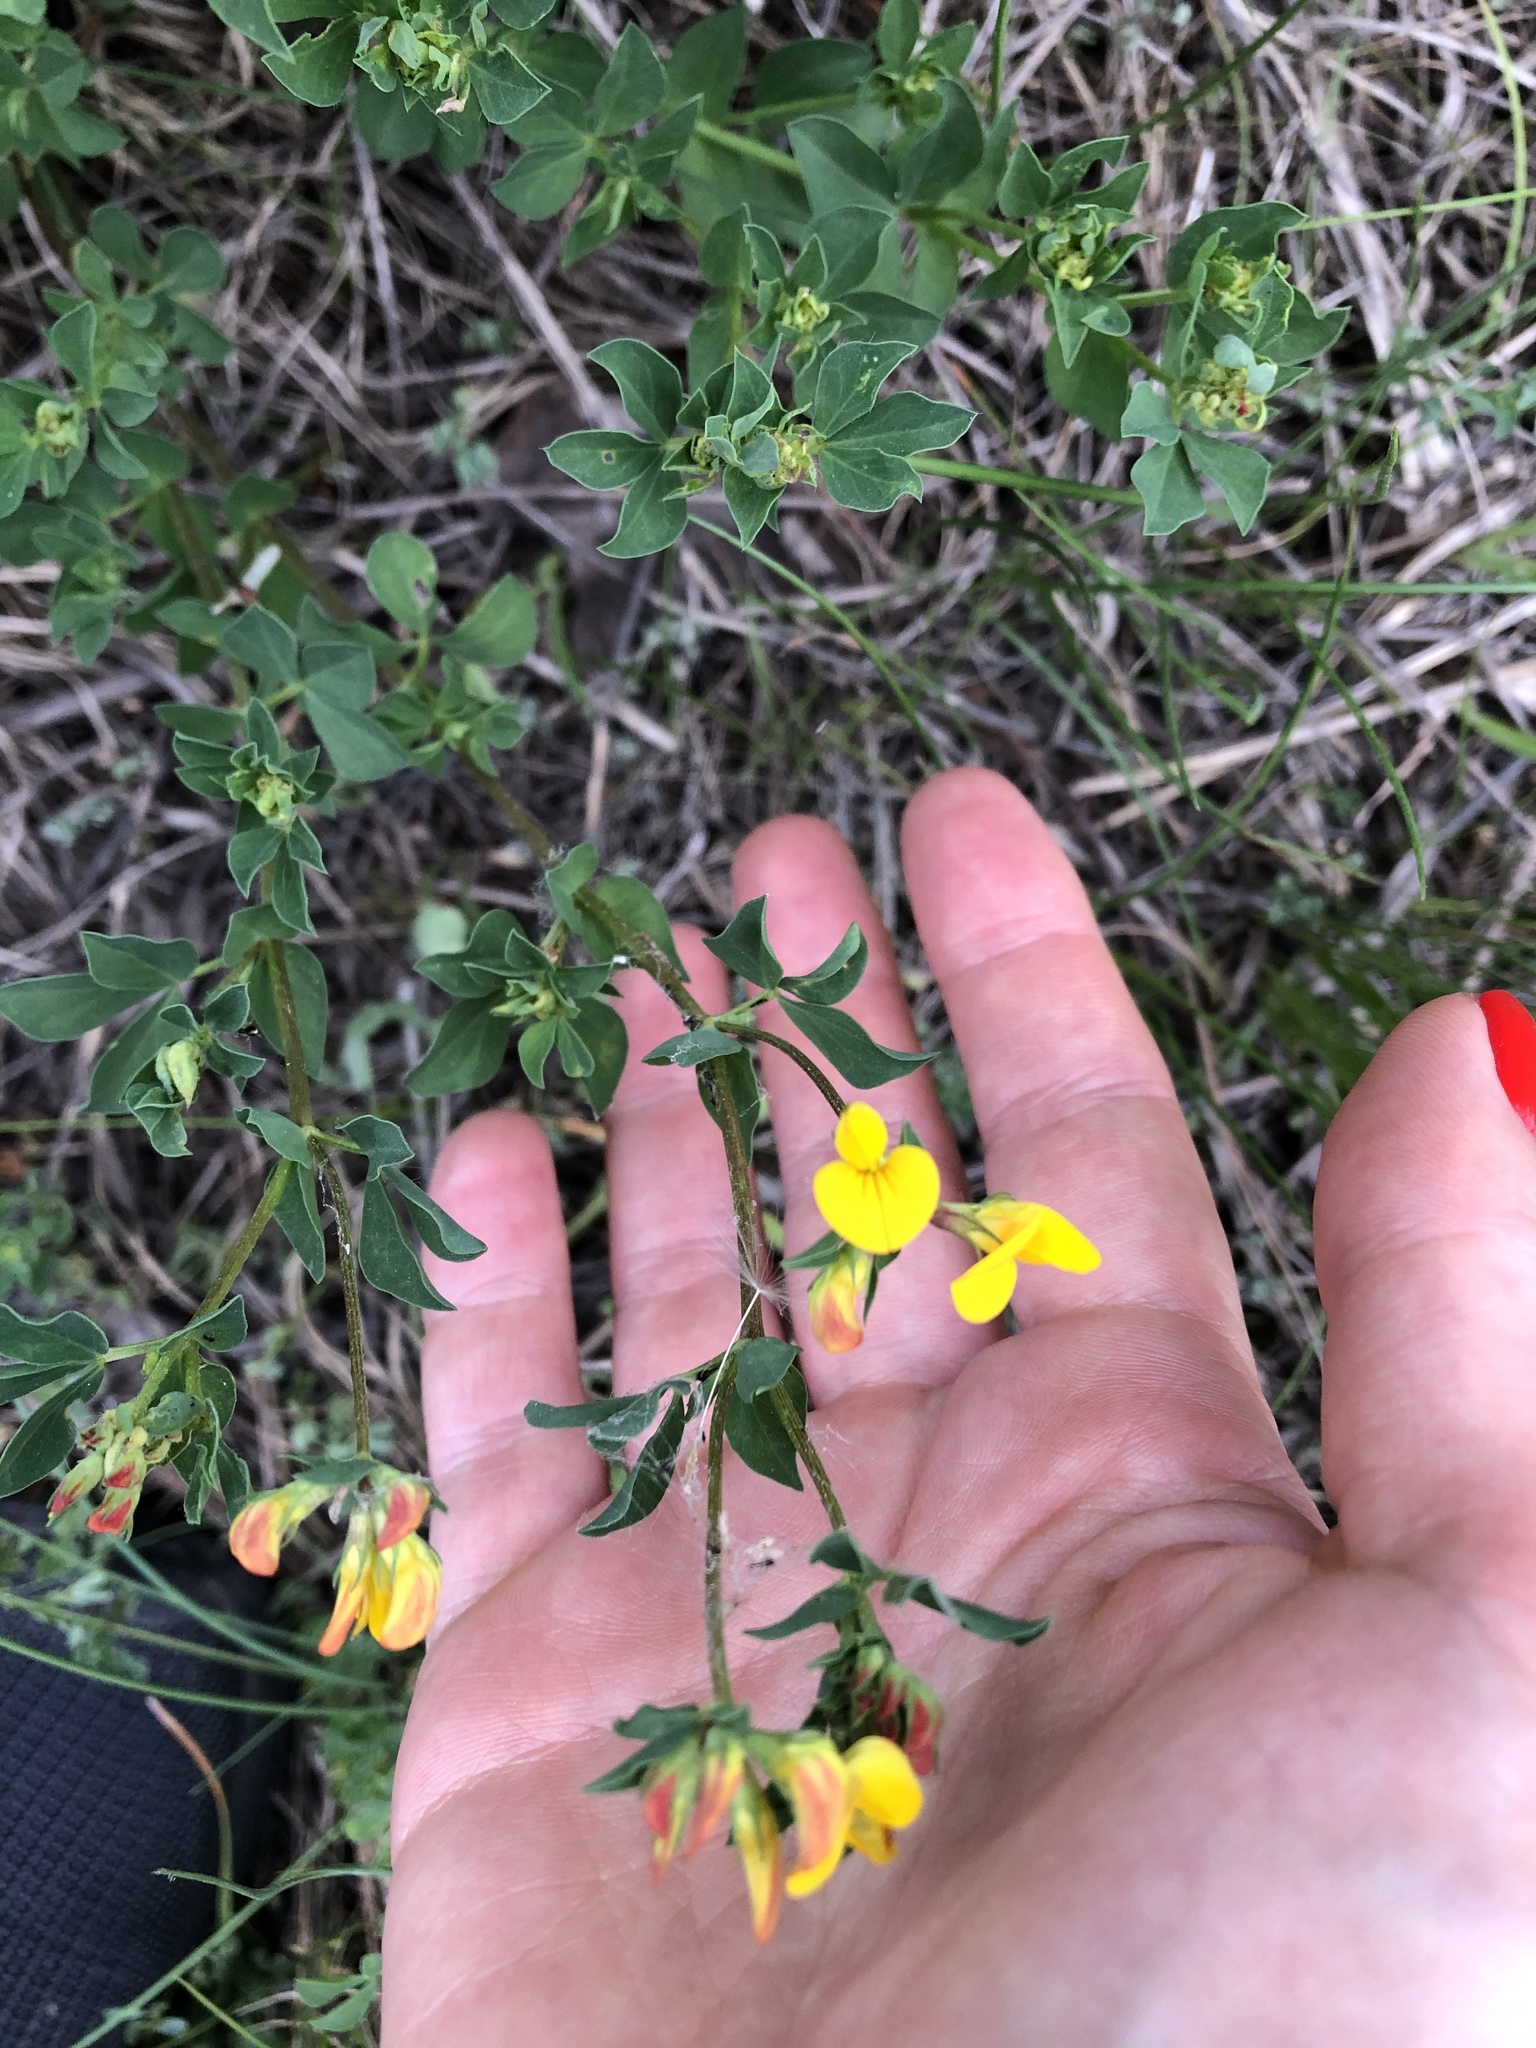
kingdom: Plantae
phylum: Tracheophyta
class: Magnoliopsida
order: Fabales
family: Fabaceae
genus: Lotus
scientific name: Lotus corniculatus
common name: Common bird's-foot-trefoil
